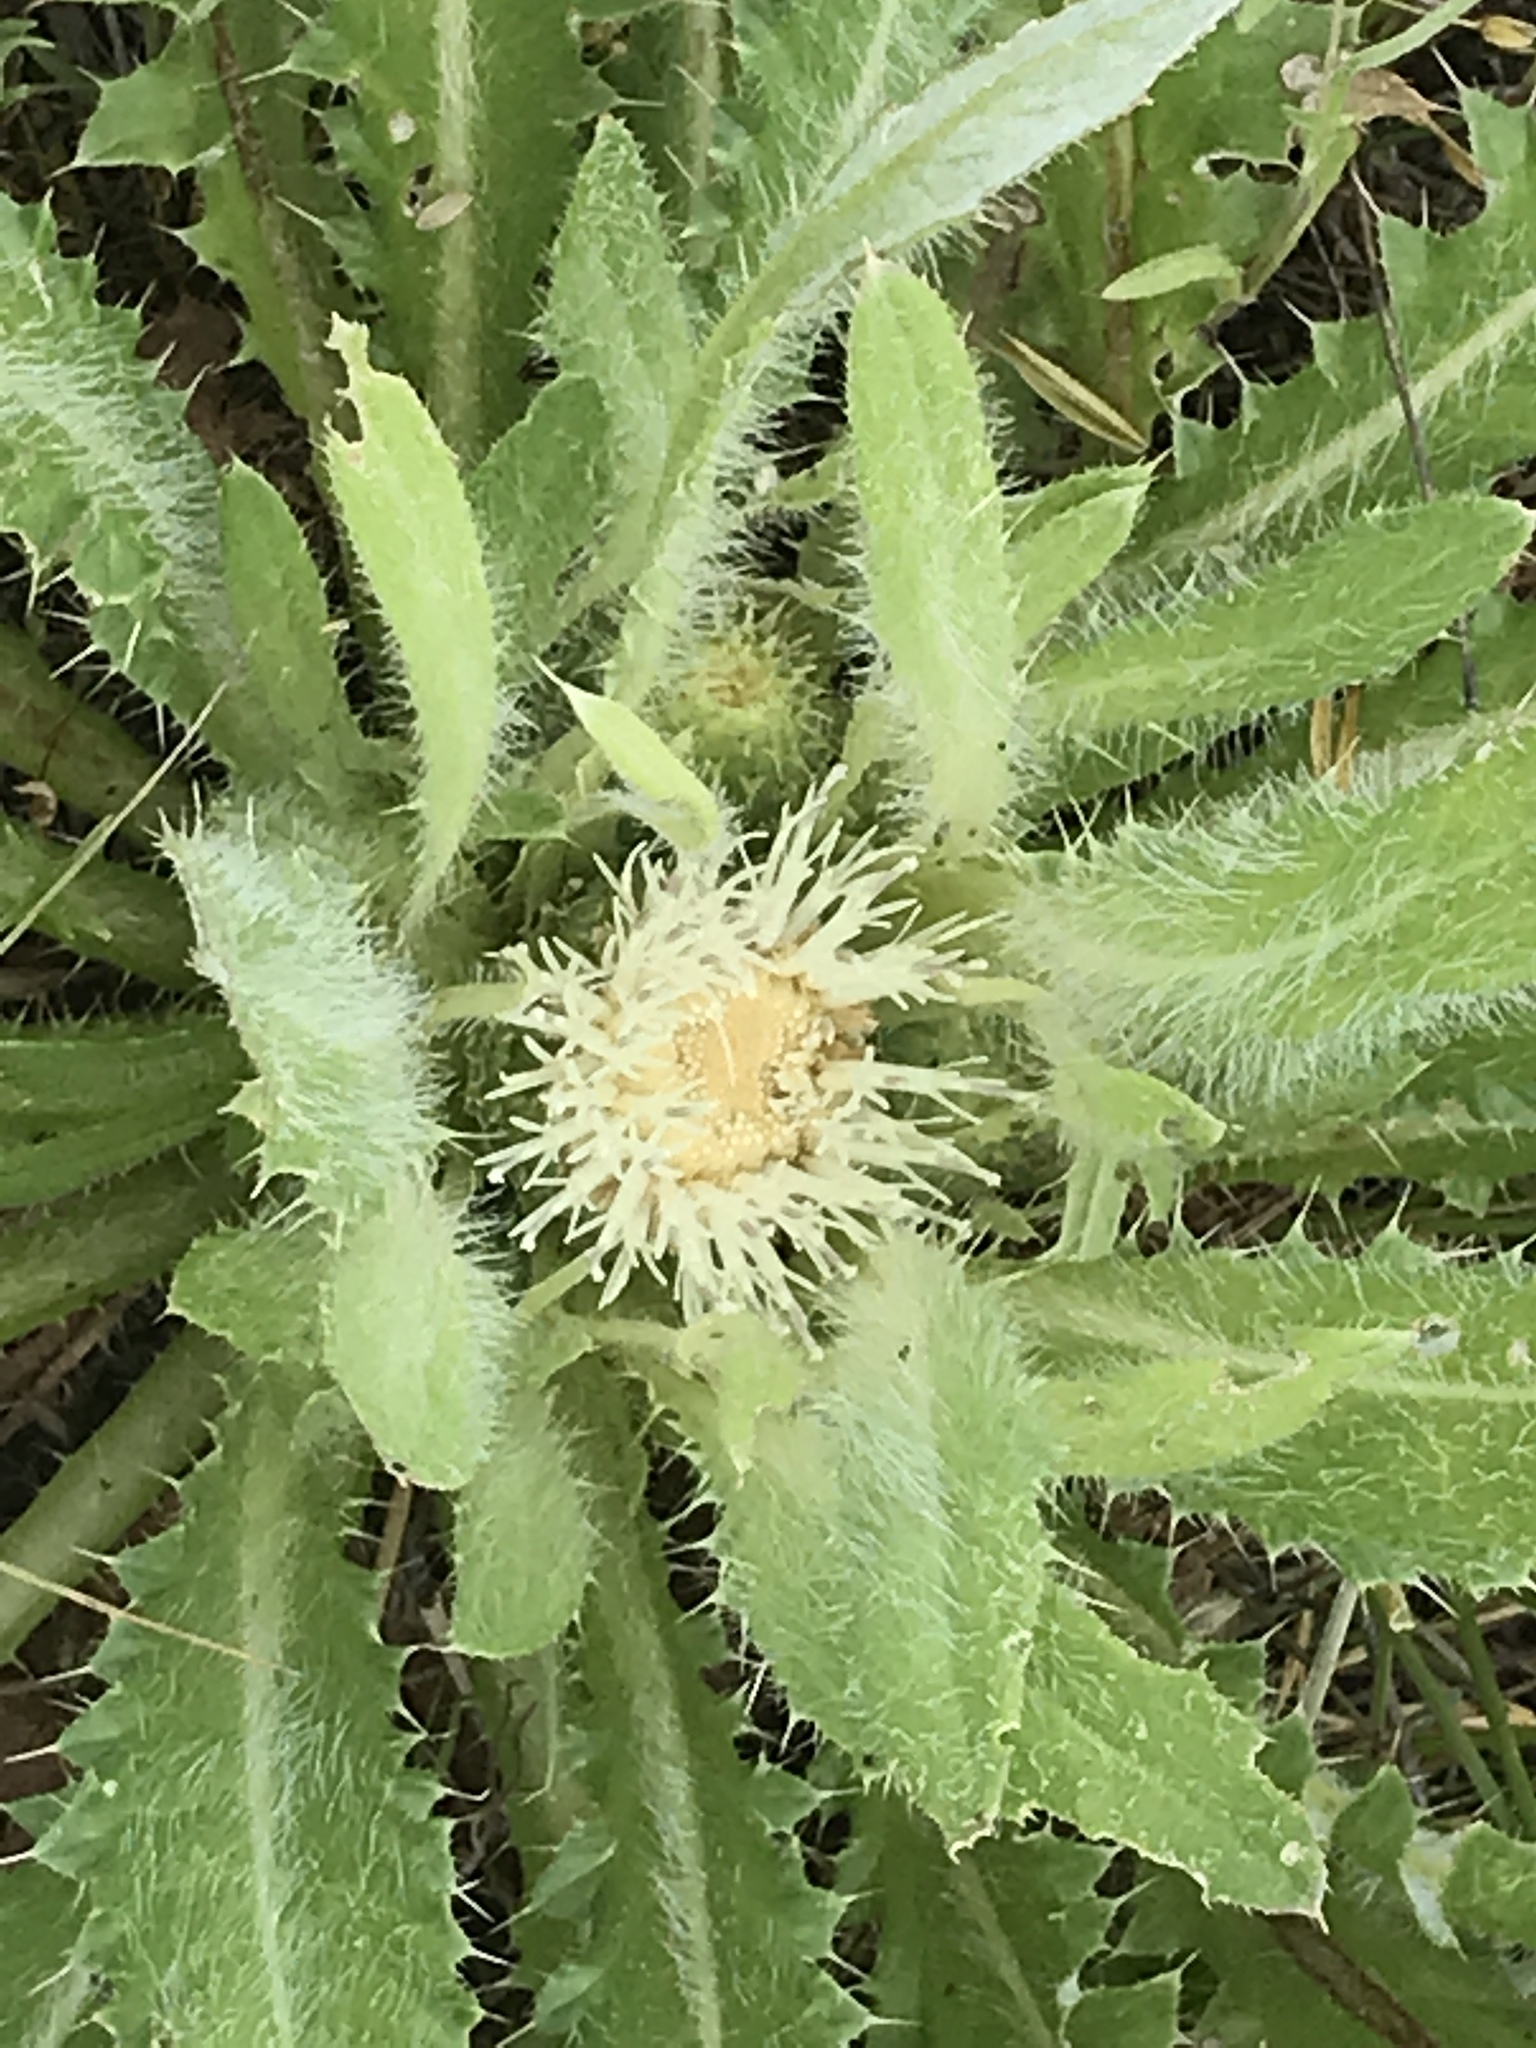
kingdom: Plantae
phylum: Tracheophyta
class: Magnoliopsida
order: Asterales
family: Asteraceae
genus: Cirsium
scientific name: Cirsium scariosum
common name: Meadow thistle
